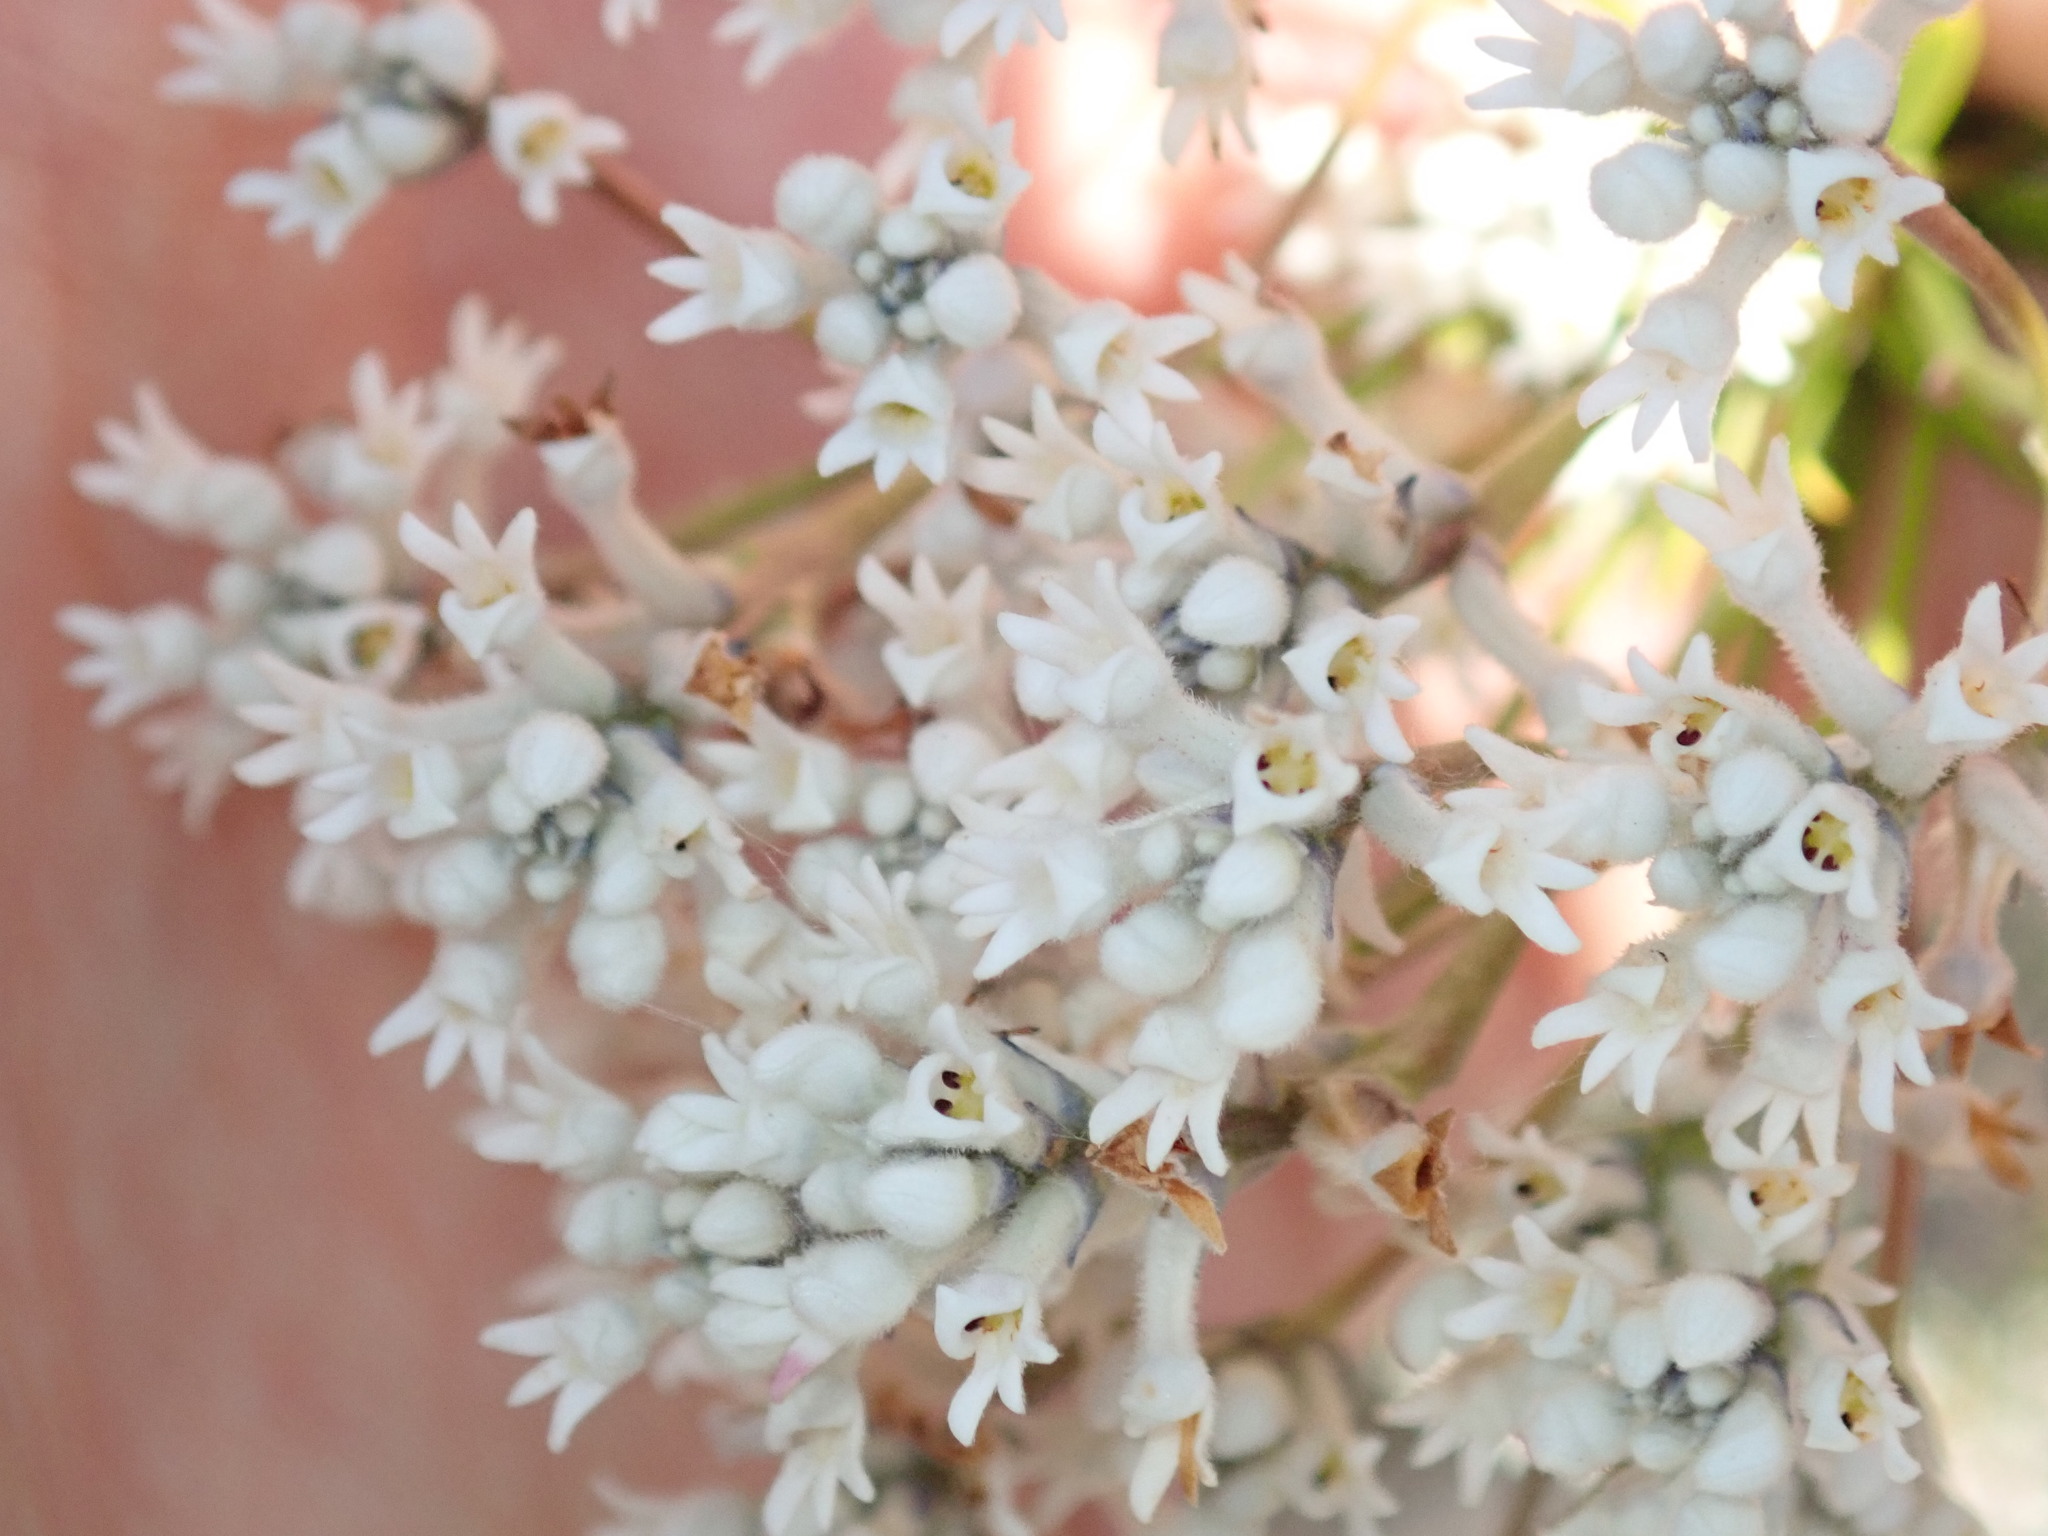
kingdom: Plantae
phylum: Tracheophyta
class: Magnoliopsida
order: Proteales
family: Proteaceae
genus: Conospermum
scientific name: Conospermum taxifolium
